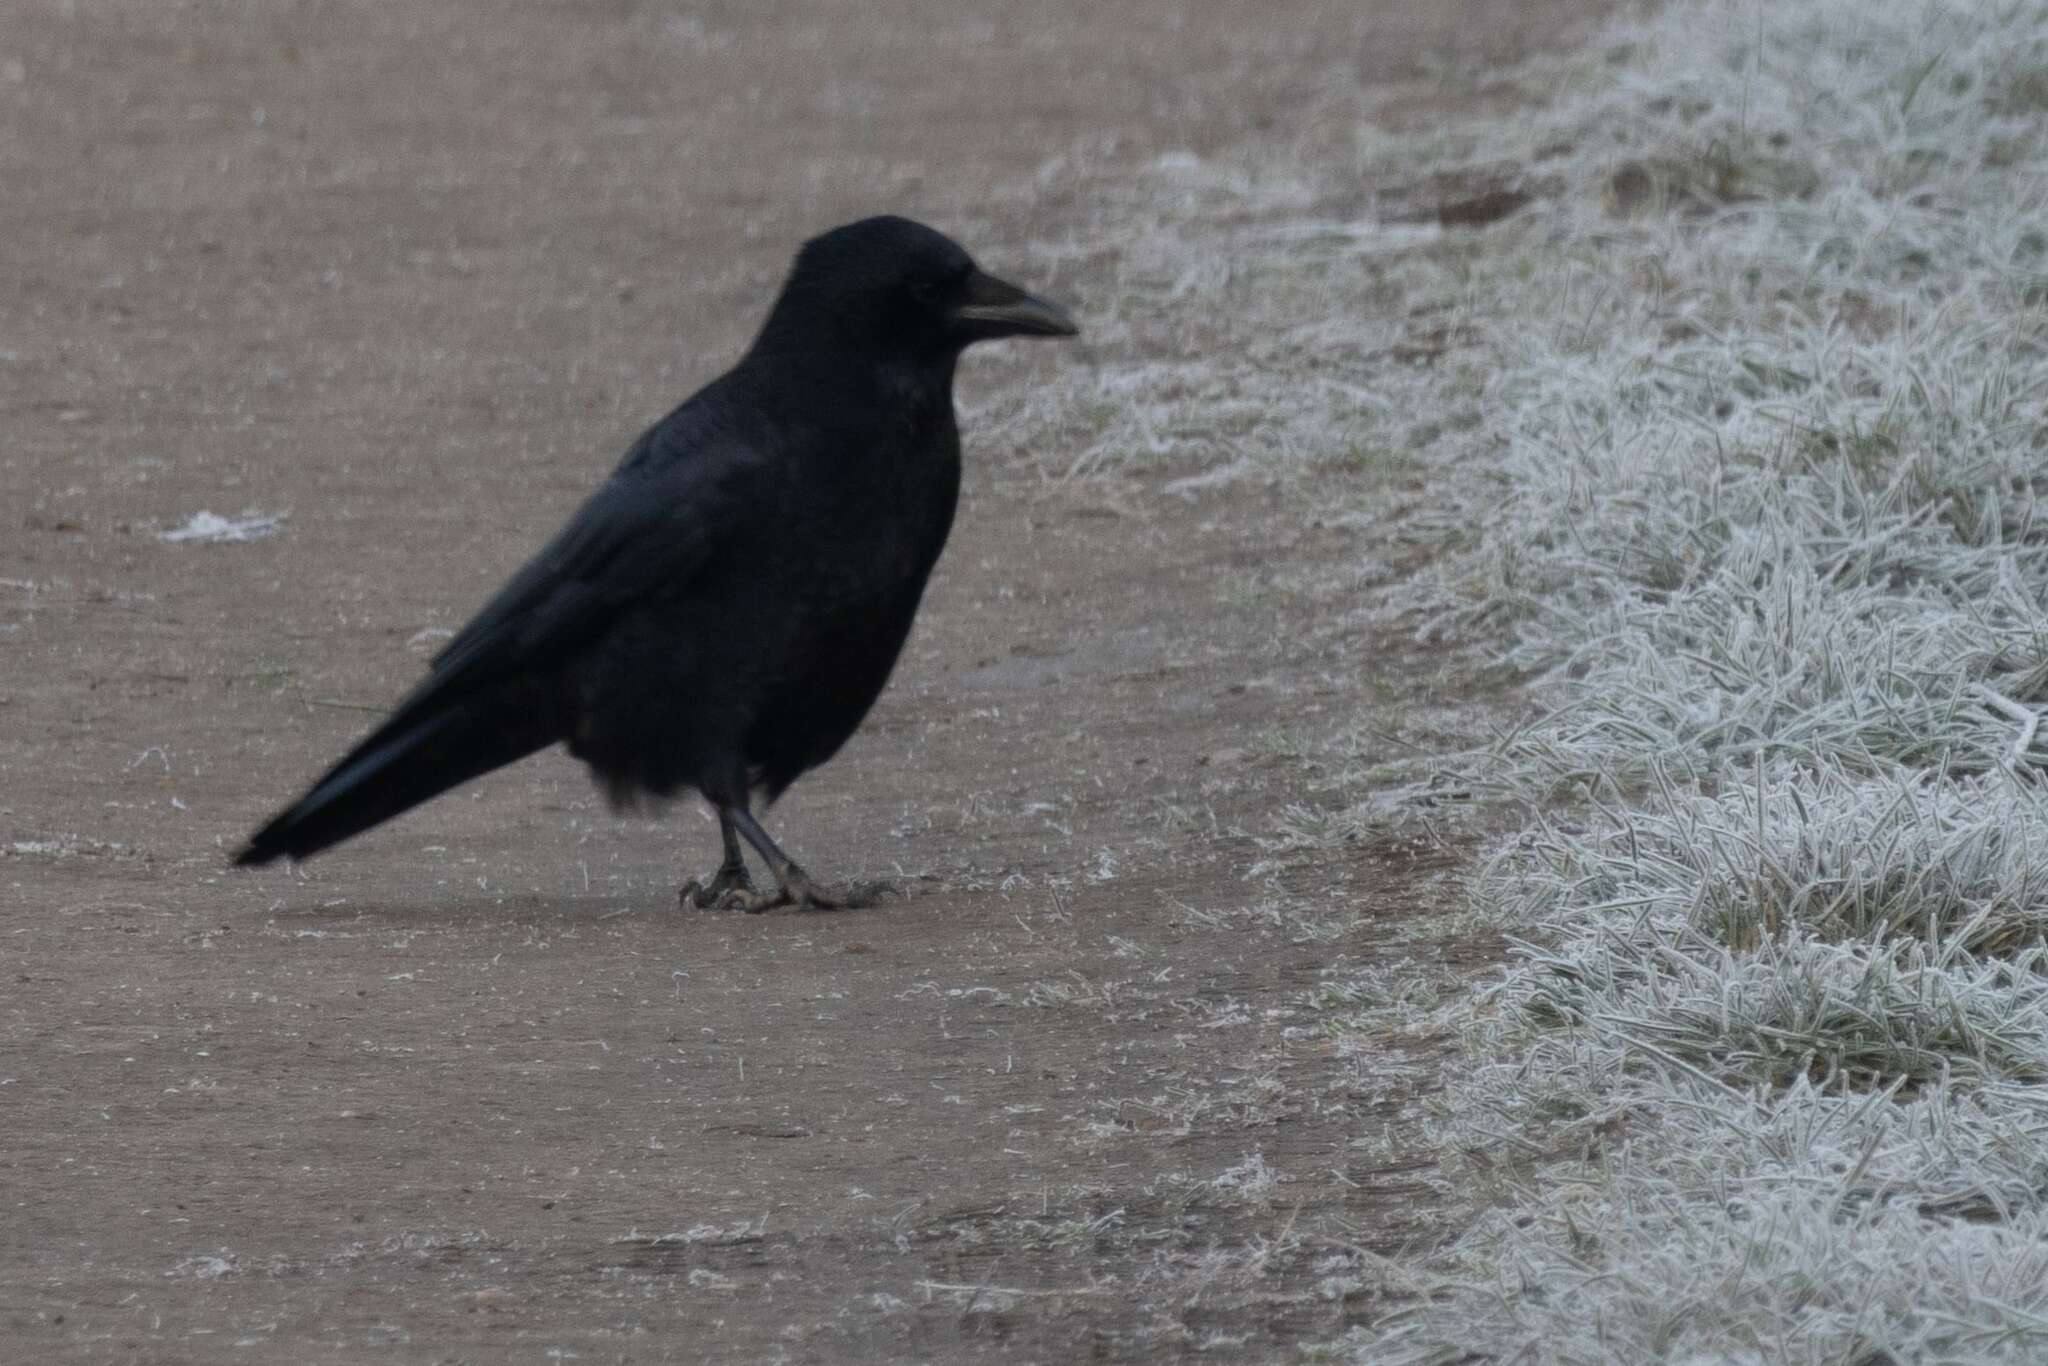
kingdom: Animalia
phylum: Chordata
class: Aves
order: Passeriformes
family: Corvidae
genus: Corvus
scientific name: Corvus corone
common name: Carrion crow
